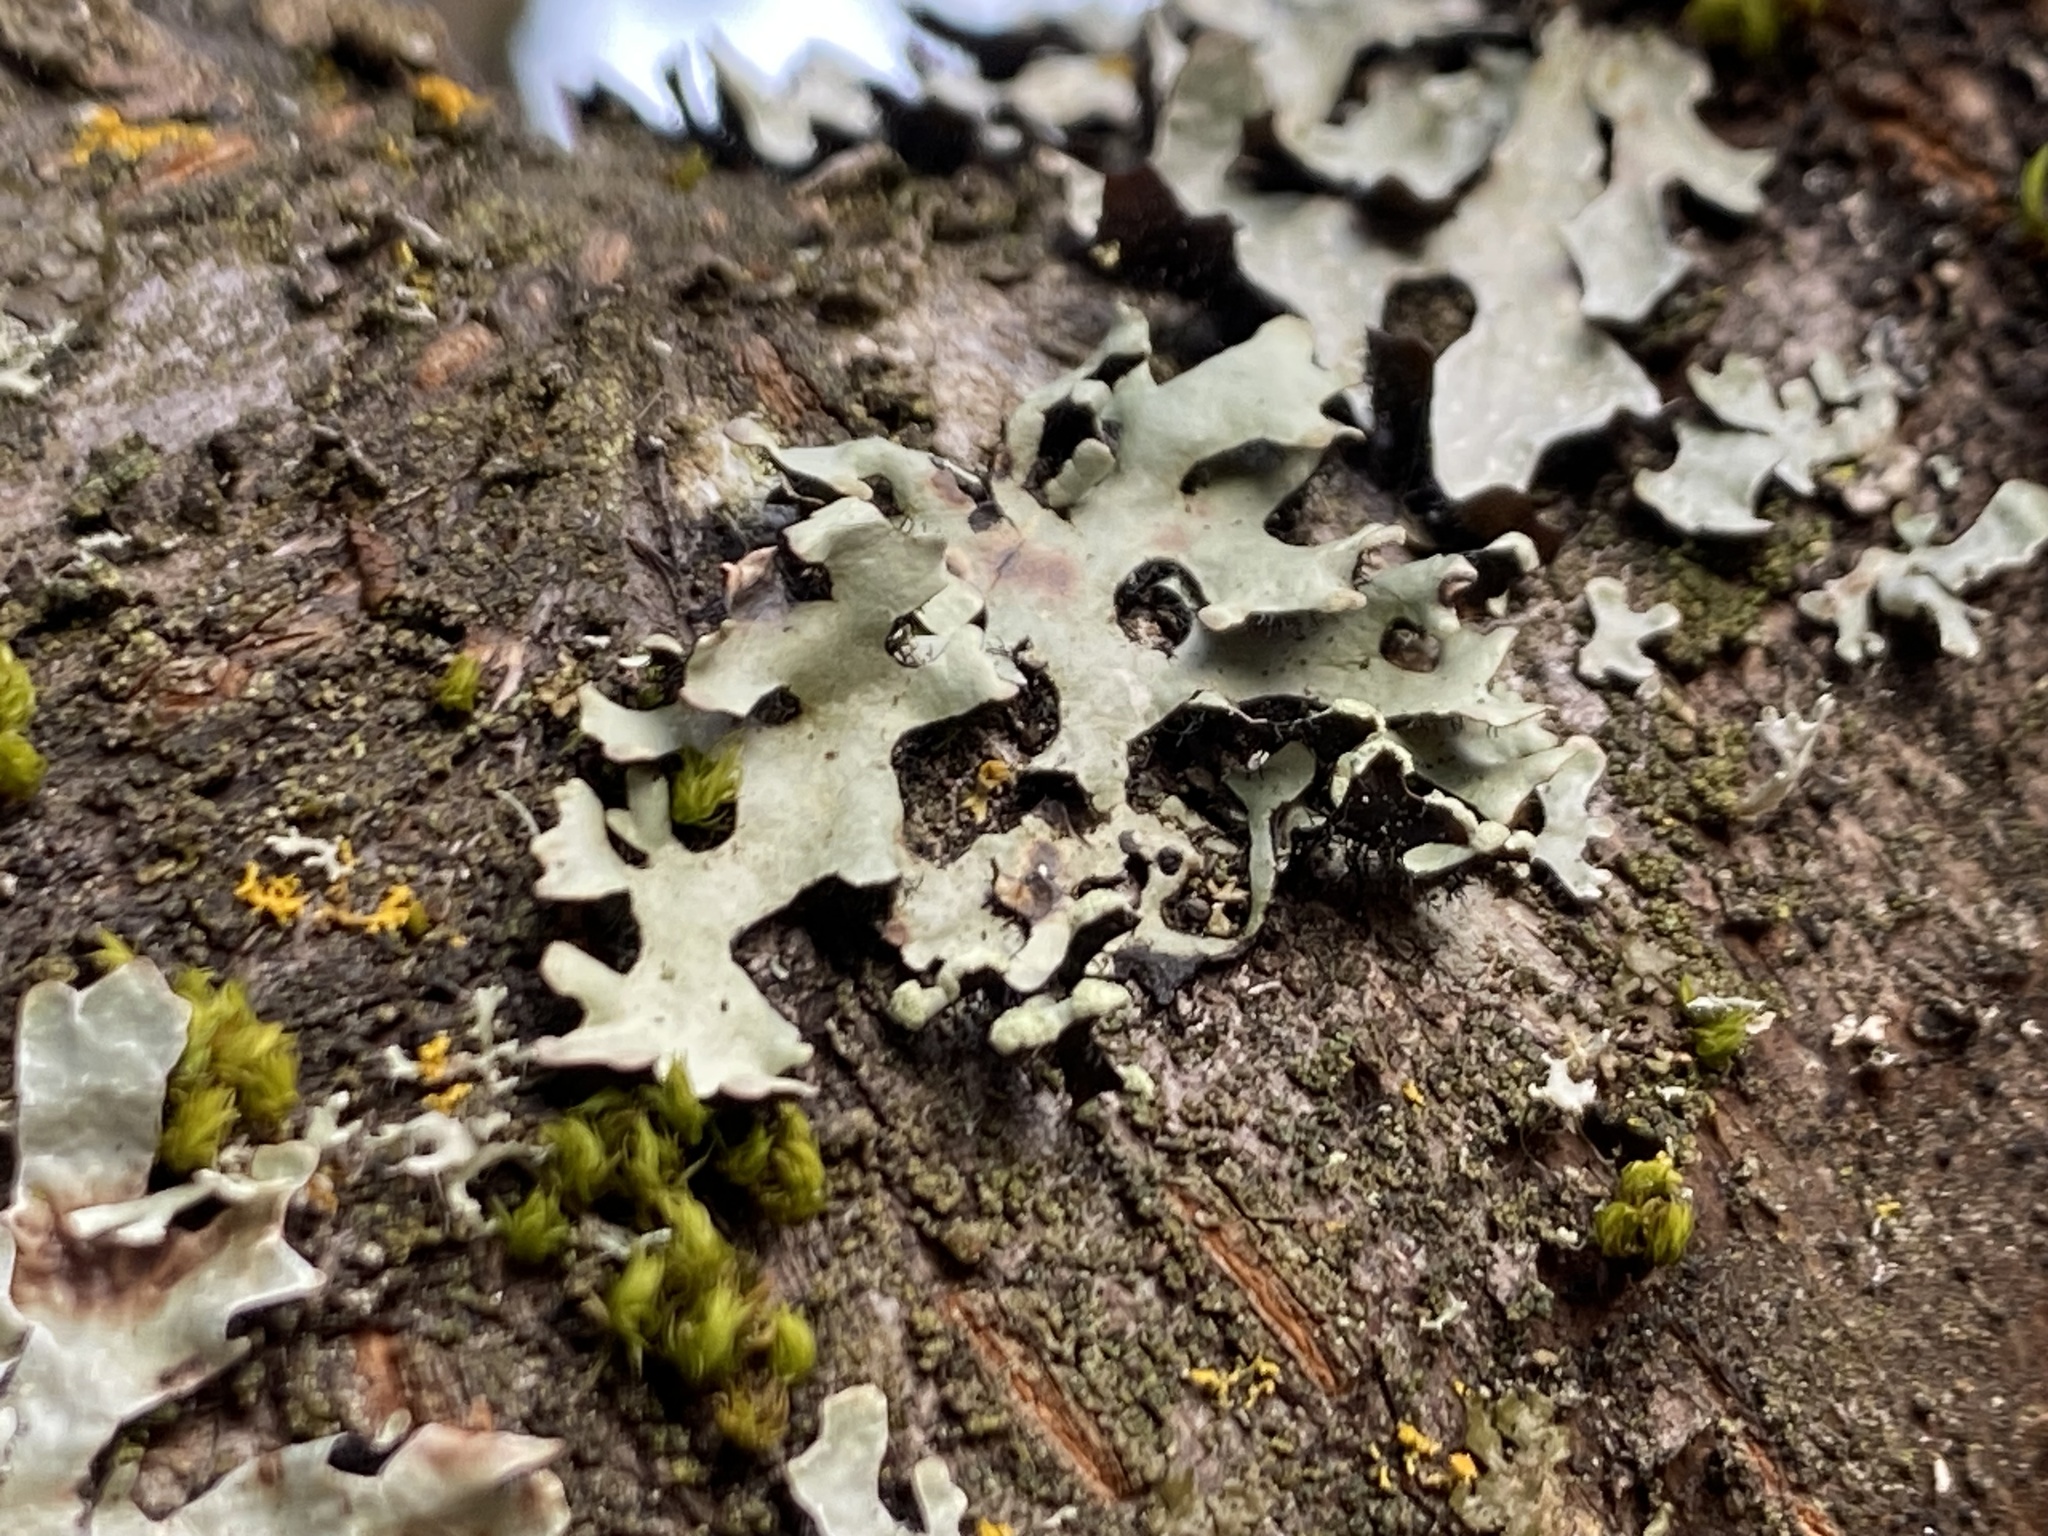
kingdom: Fungi
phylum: Ascomycota
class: Lecanoromycetes
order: Lecanorales
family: Parmeliaceae
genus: Hypotrachyna
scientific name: Hypotrachyna sinuosa
